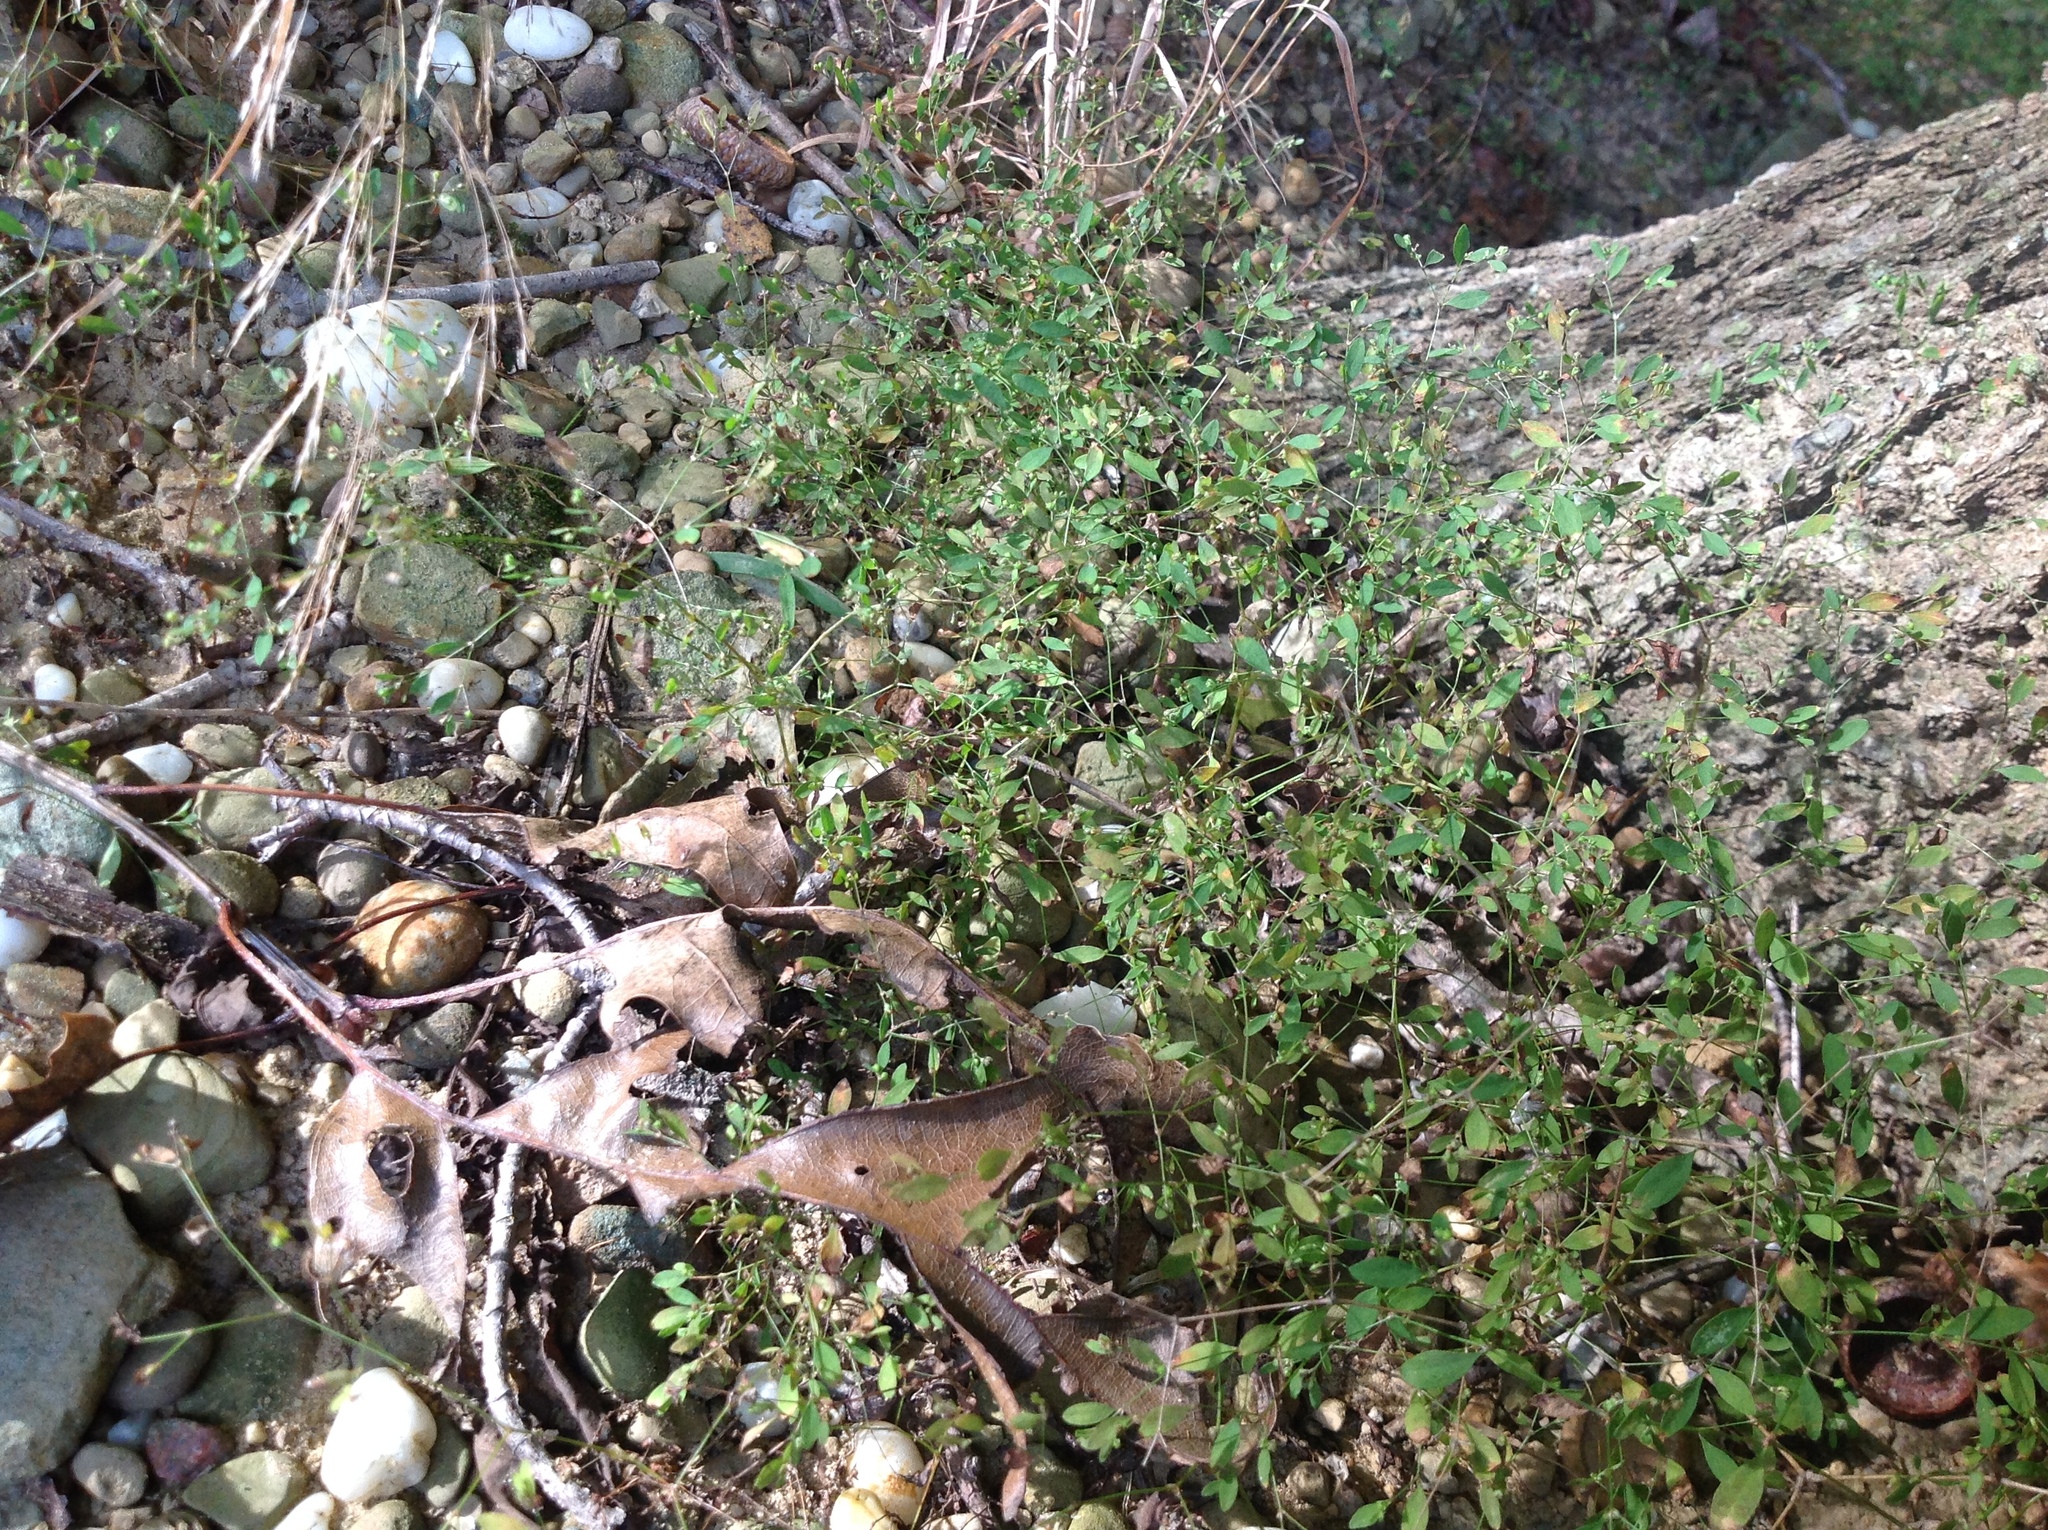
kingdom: Plantae
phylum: Tracheophyta
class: Magnoliopsida
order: Caryophyllales
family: Caryophyllaceae
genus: Paronychia
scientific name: Paronychia canadensis
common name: Canada forked nailwort
